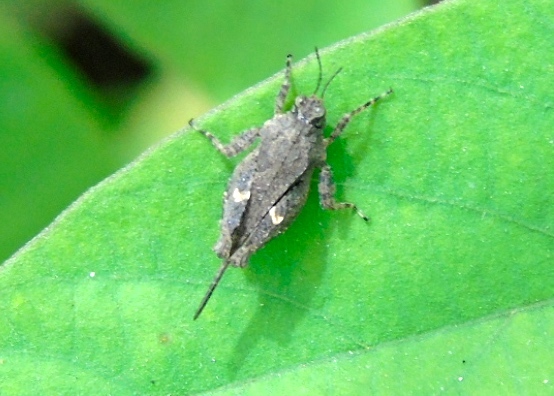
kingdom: Animalia
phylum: Arthropoda
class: Insecta
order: Orthoptera
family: Tetrigidae
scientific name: Tetrigidae
